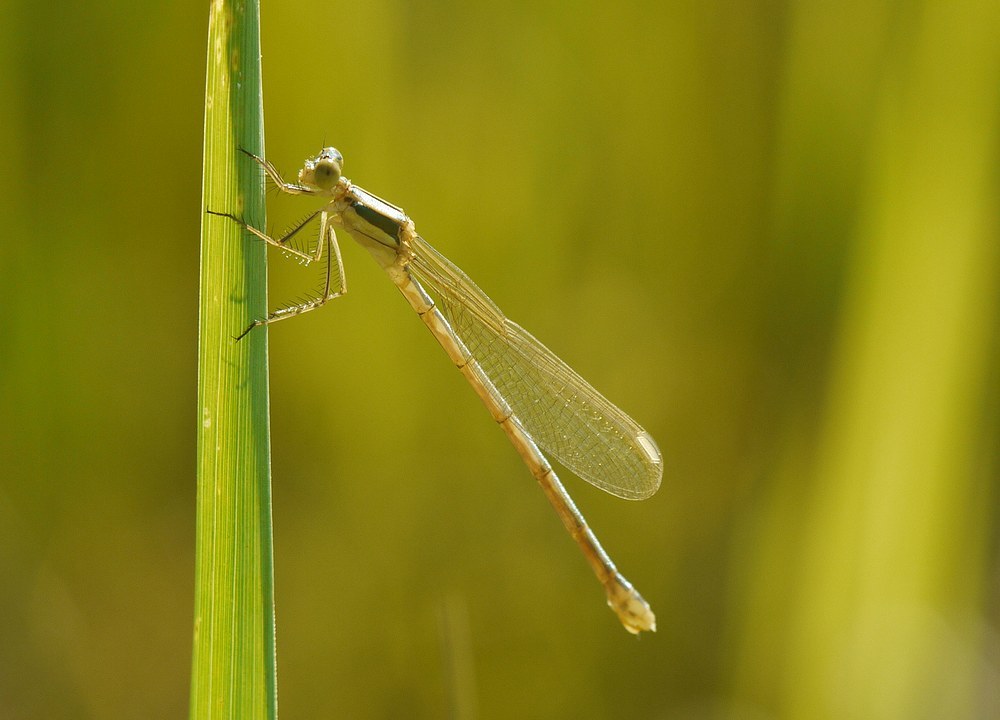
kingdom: Animalia
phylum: Arthropoda
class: Insecta
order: Odonata
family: Lestidae
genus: Lestes
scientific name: Lestes barbarus
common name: Migrant spreadwing
